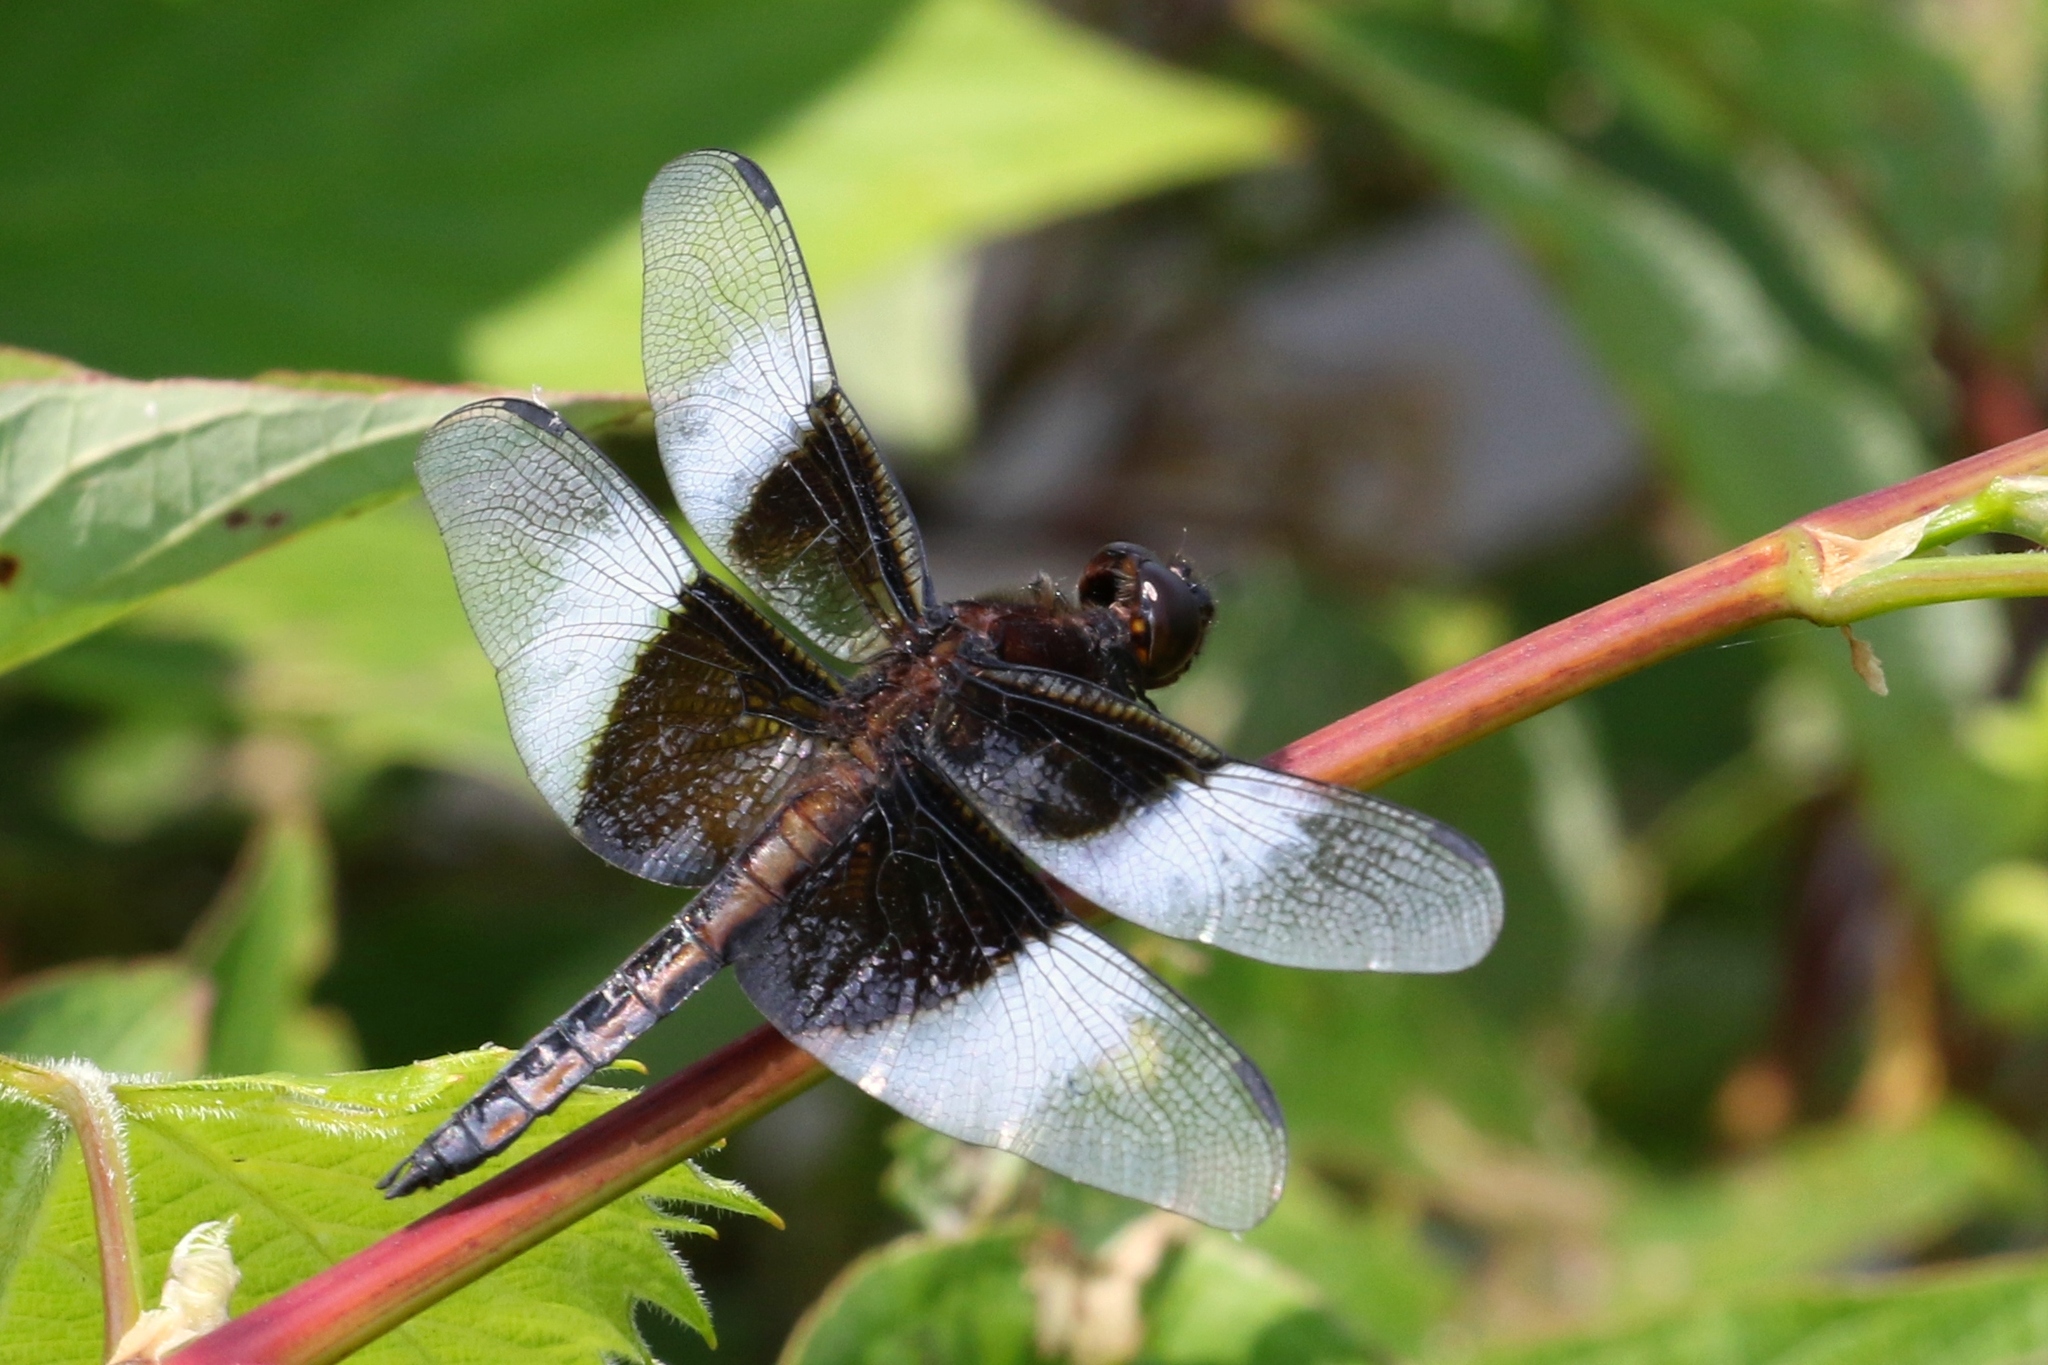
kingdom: Animalia
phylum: Arthropoda
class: Insecta
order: Odonata
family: Libellulidae
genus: Libellula
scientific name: Libellula luctuosa
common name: Widow skimmer
